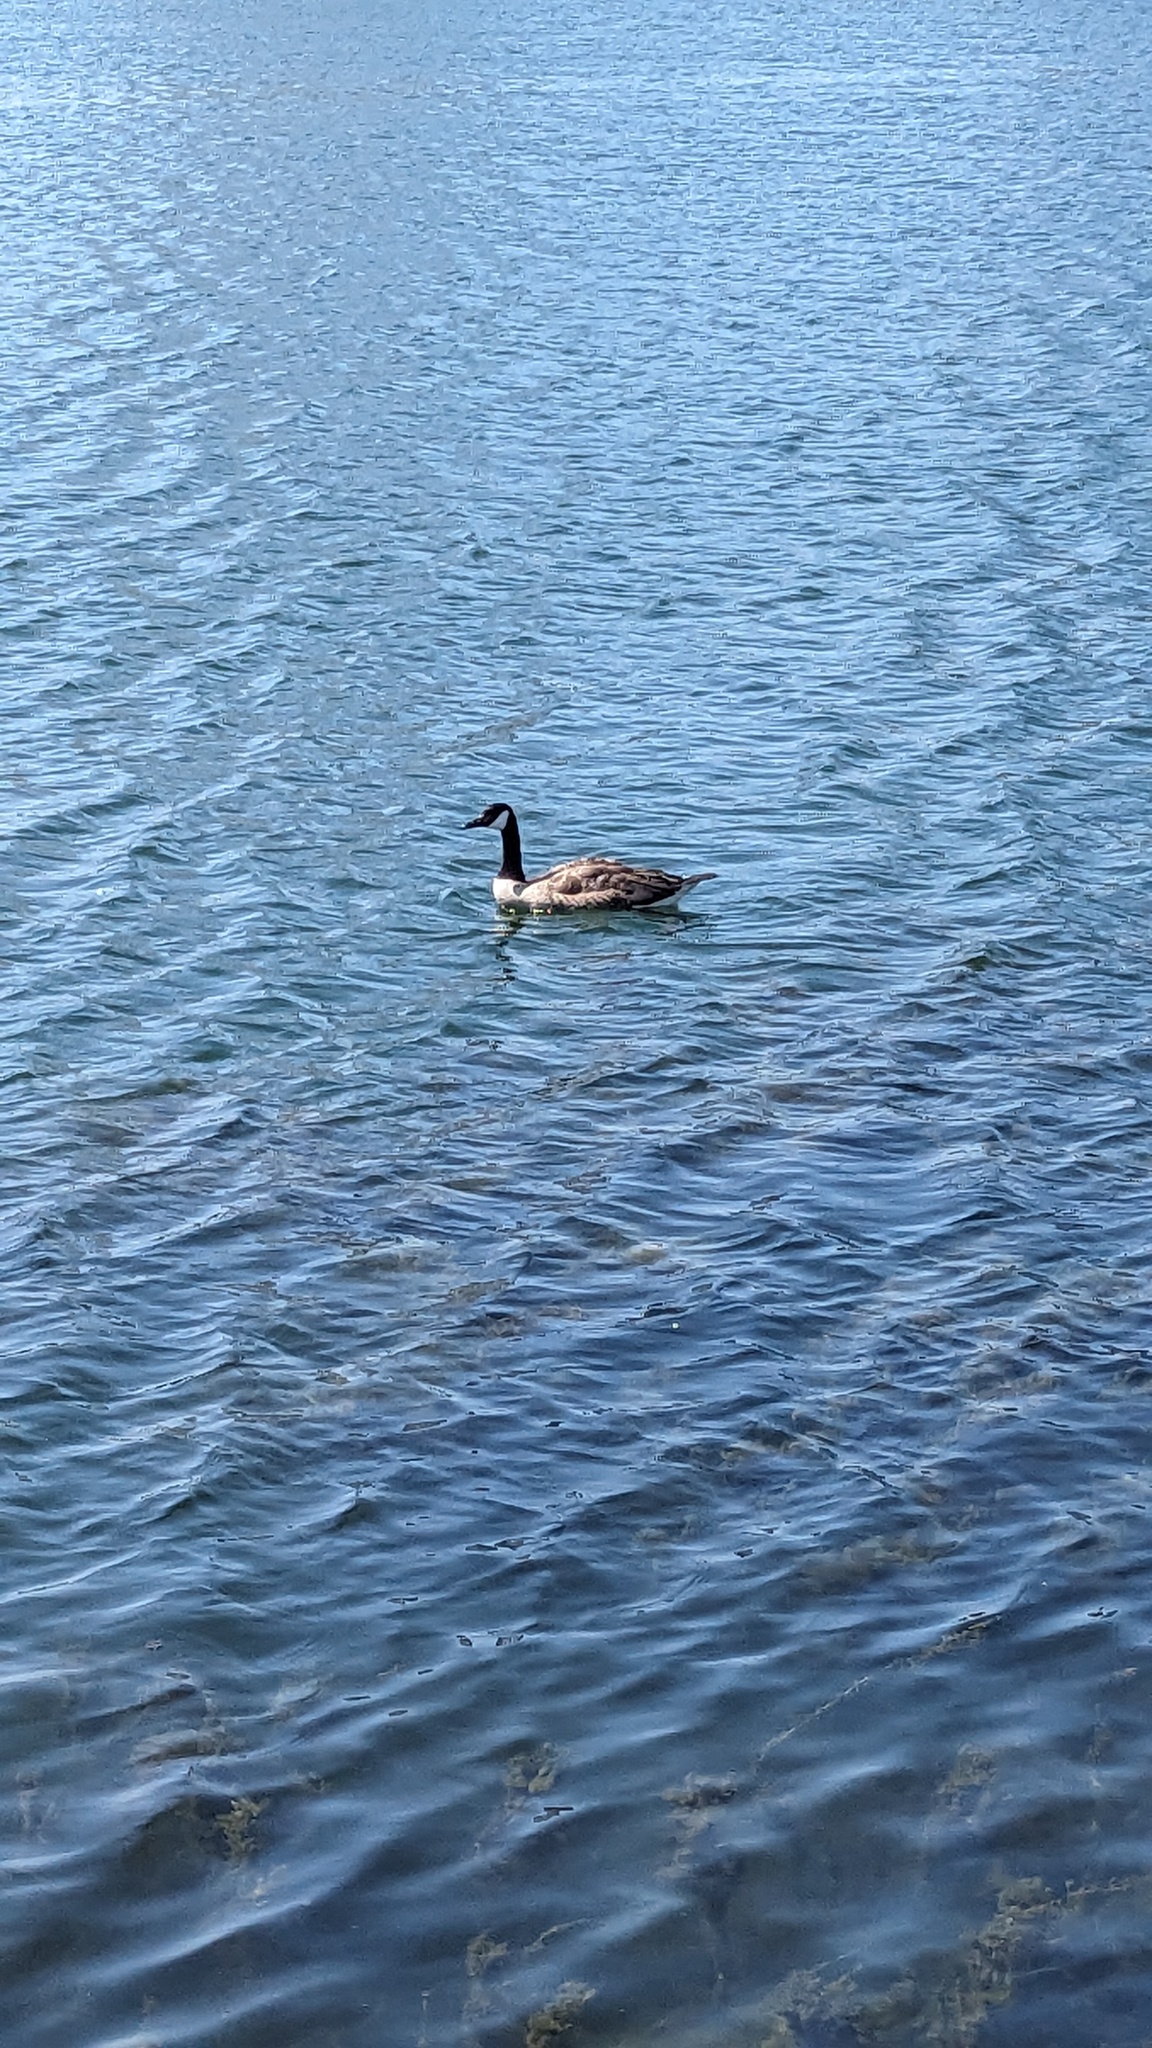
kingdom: Animalia
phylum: Chordata
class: Aves
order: Anseriformes
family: Anatidae
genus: Branta
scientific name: Branta canadensis
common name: Canada goose
